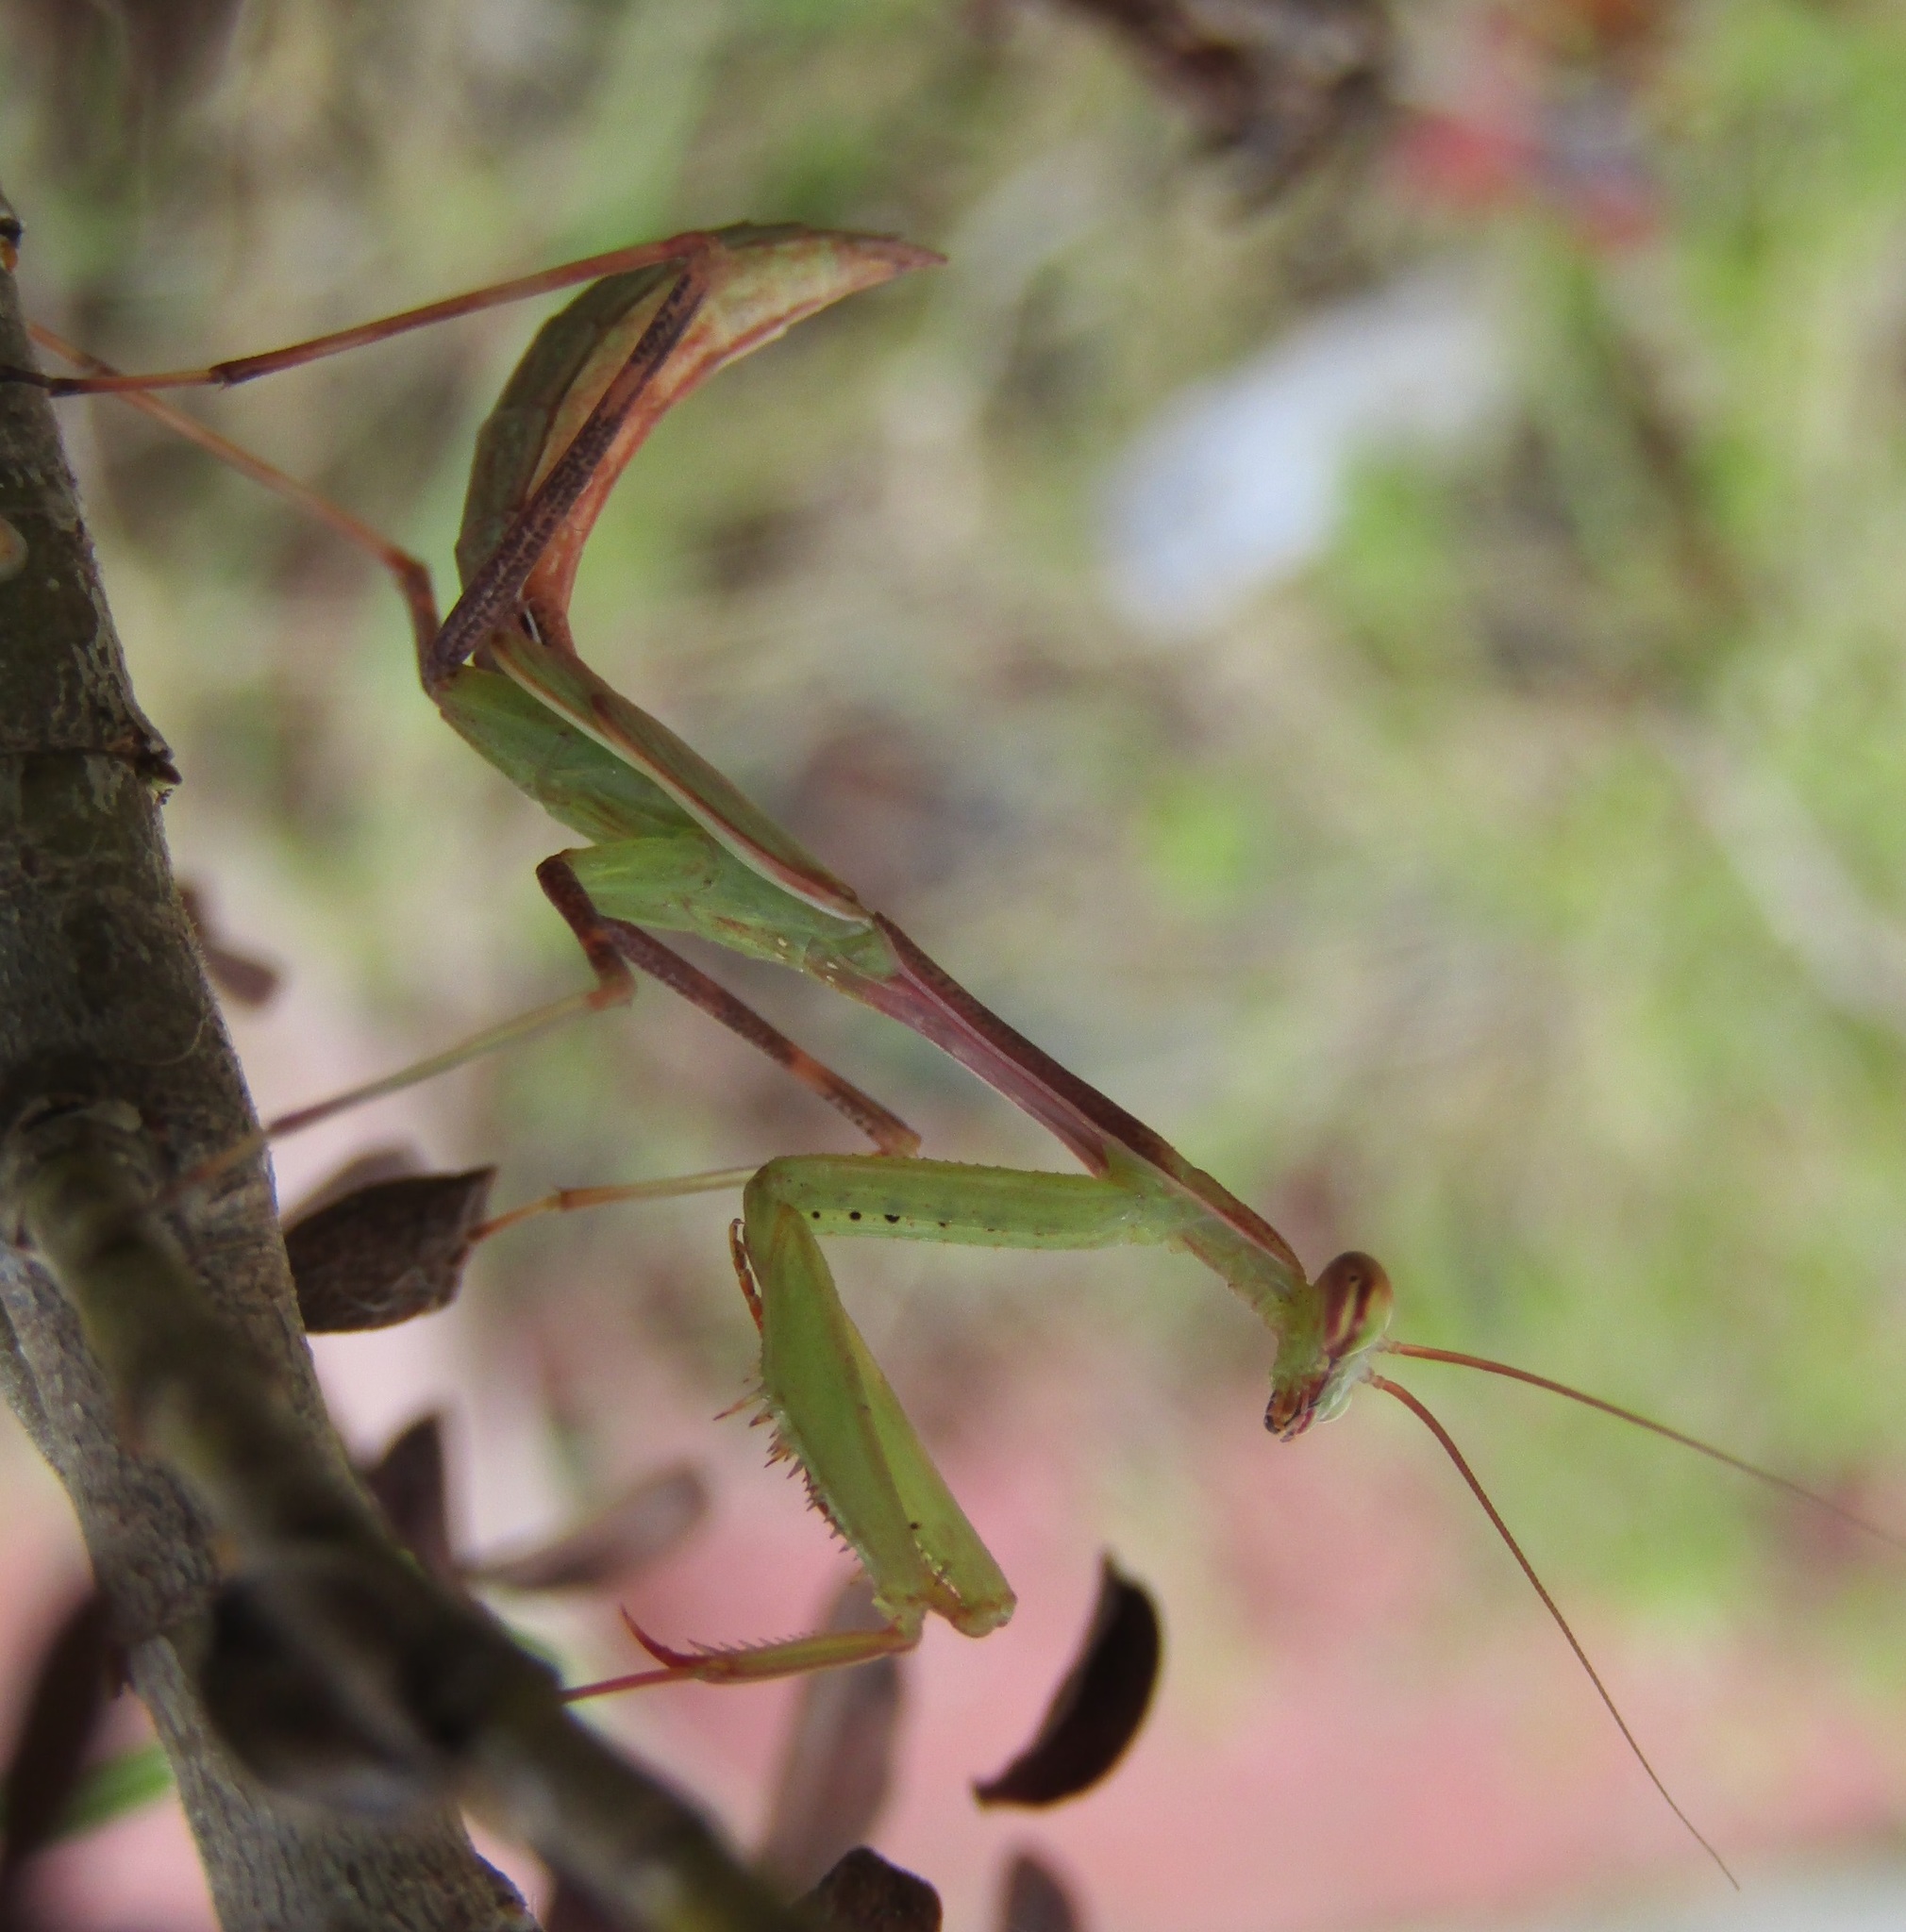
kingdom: Animalia
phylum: Arthropoda
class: Insecta
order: Mantodea
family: Miomantidae
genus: Miomantis
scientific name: Miomantis caffra
